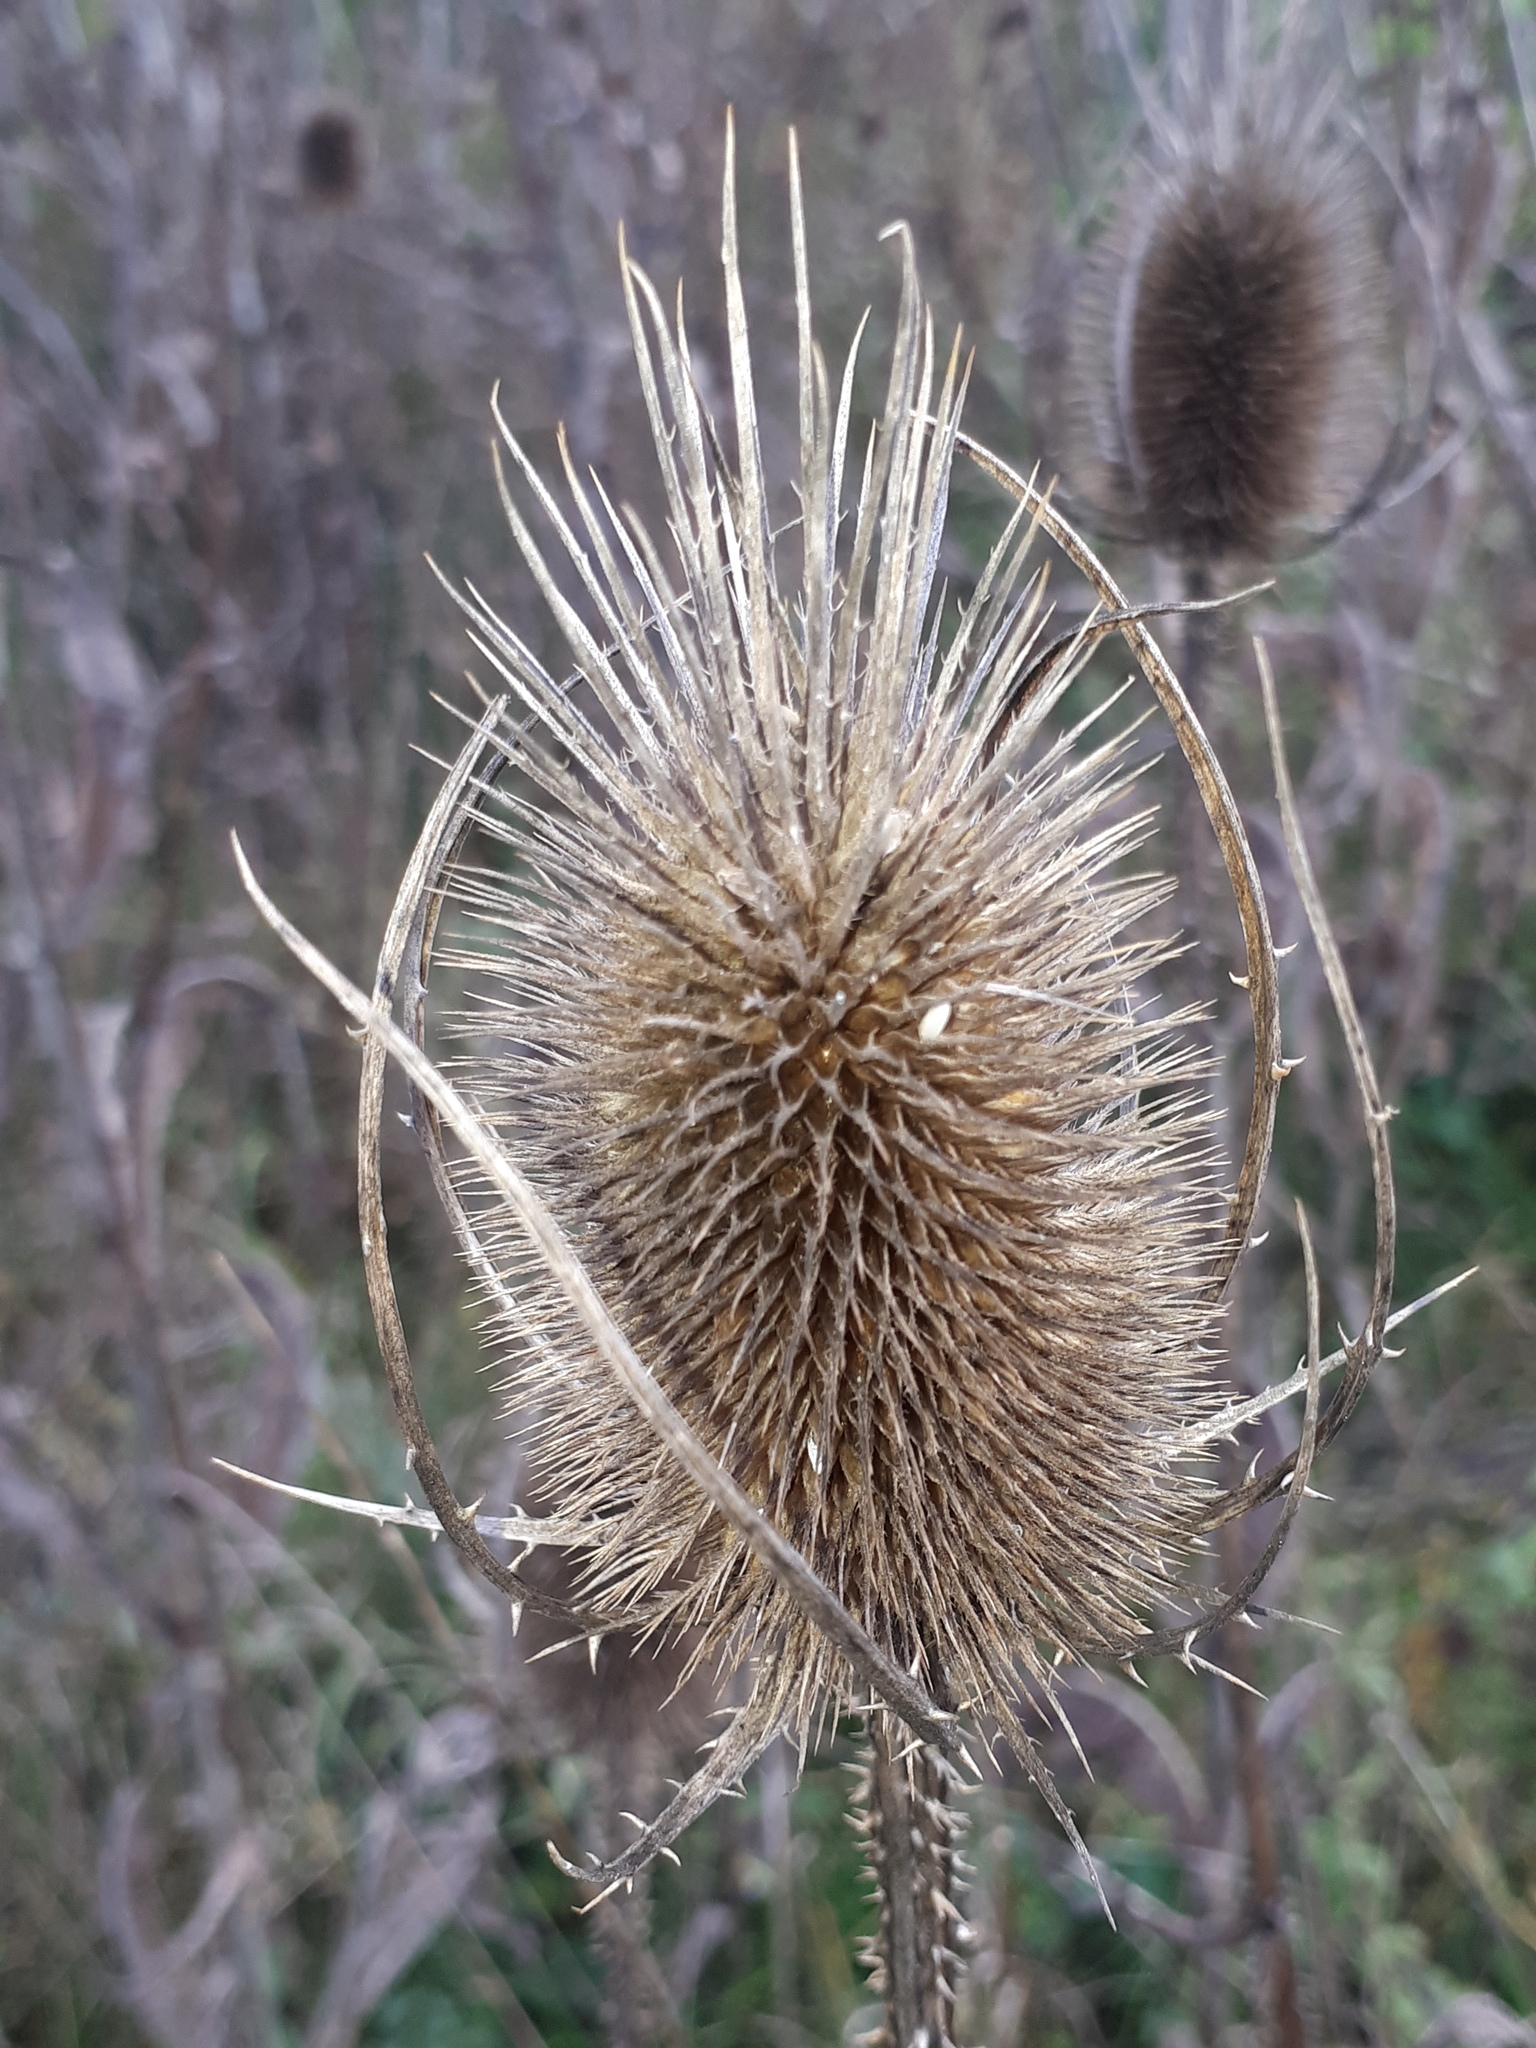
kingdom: Plantae
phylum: Tracheophyta
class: Magnoliopsida
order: Dipsacales
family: Caprifoliaceae
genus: Dipsacus
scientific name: Dipsacus fullonum
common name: Teasel
